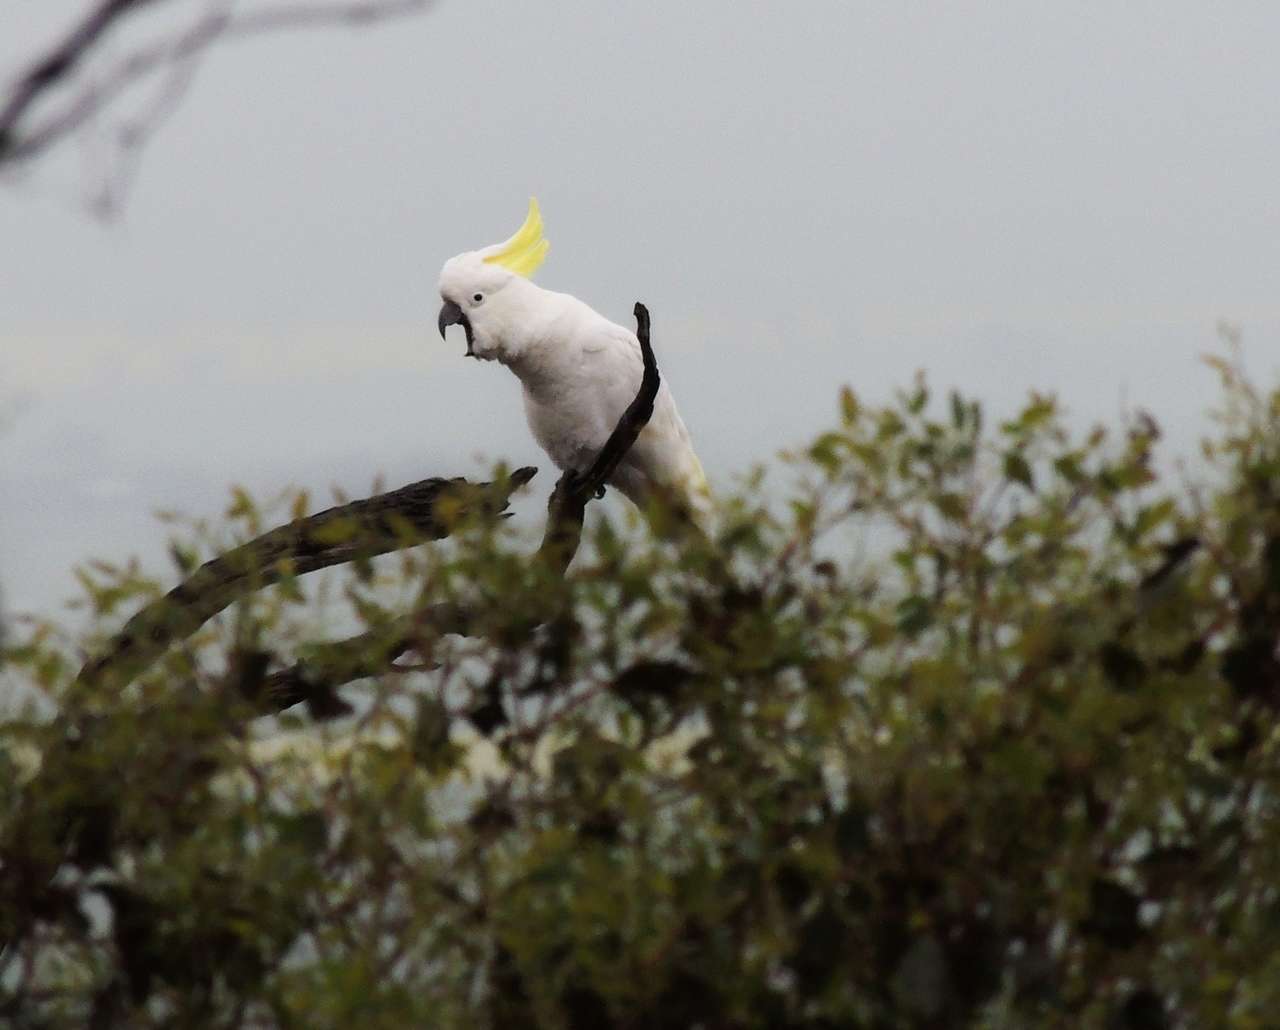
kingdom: Animalia
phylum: Chordata
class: Aves
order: Psittaciformes
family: Psittacidae
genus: Cacatua
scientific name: Cacatua galerita
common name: Sulphur-crested cockatoo
